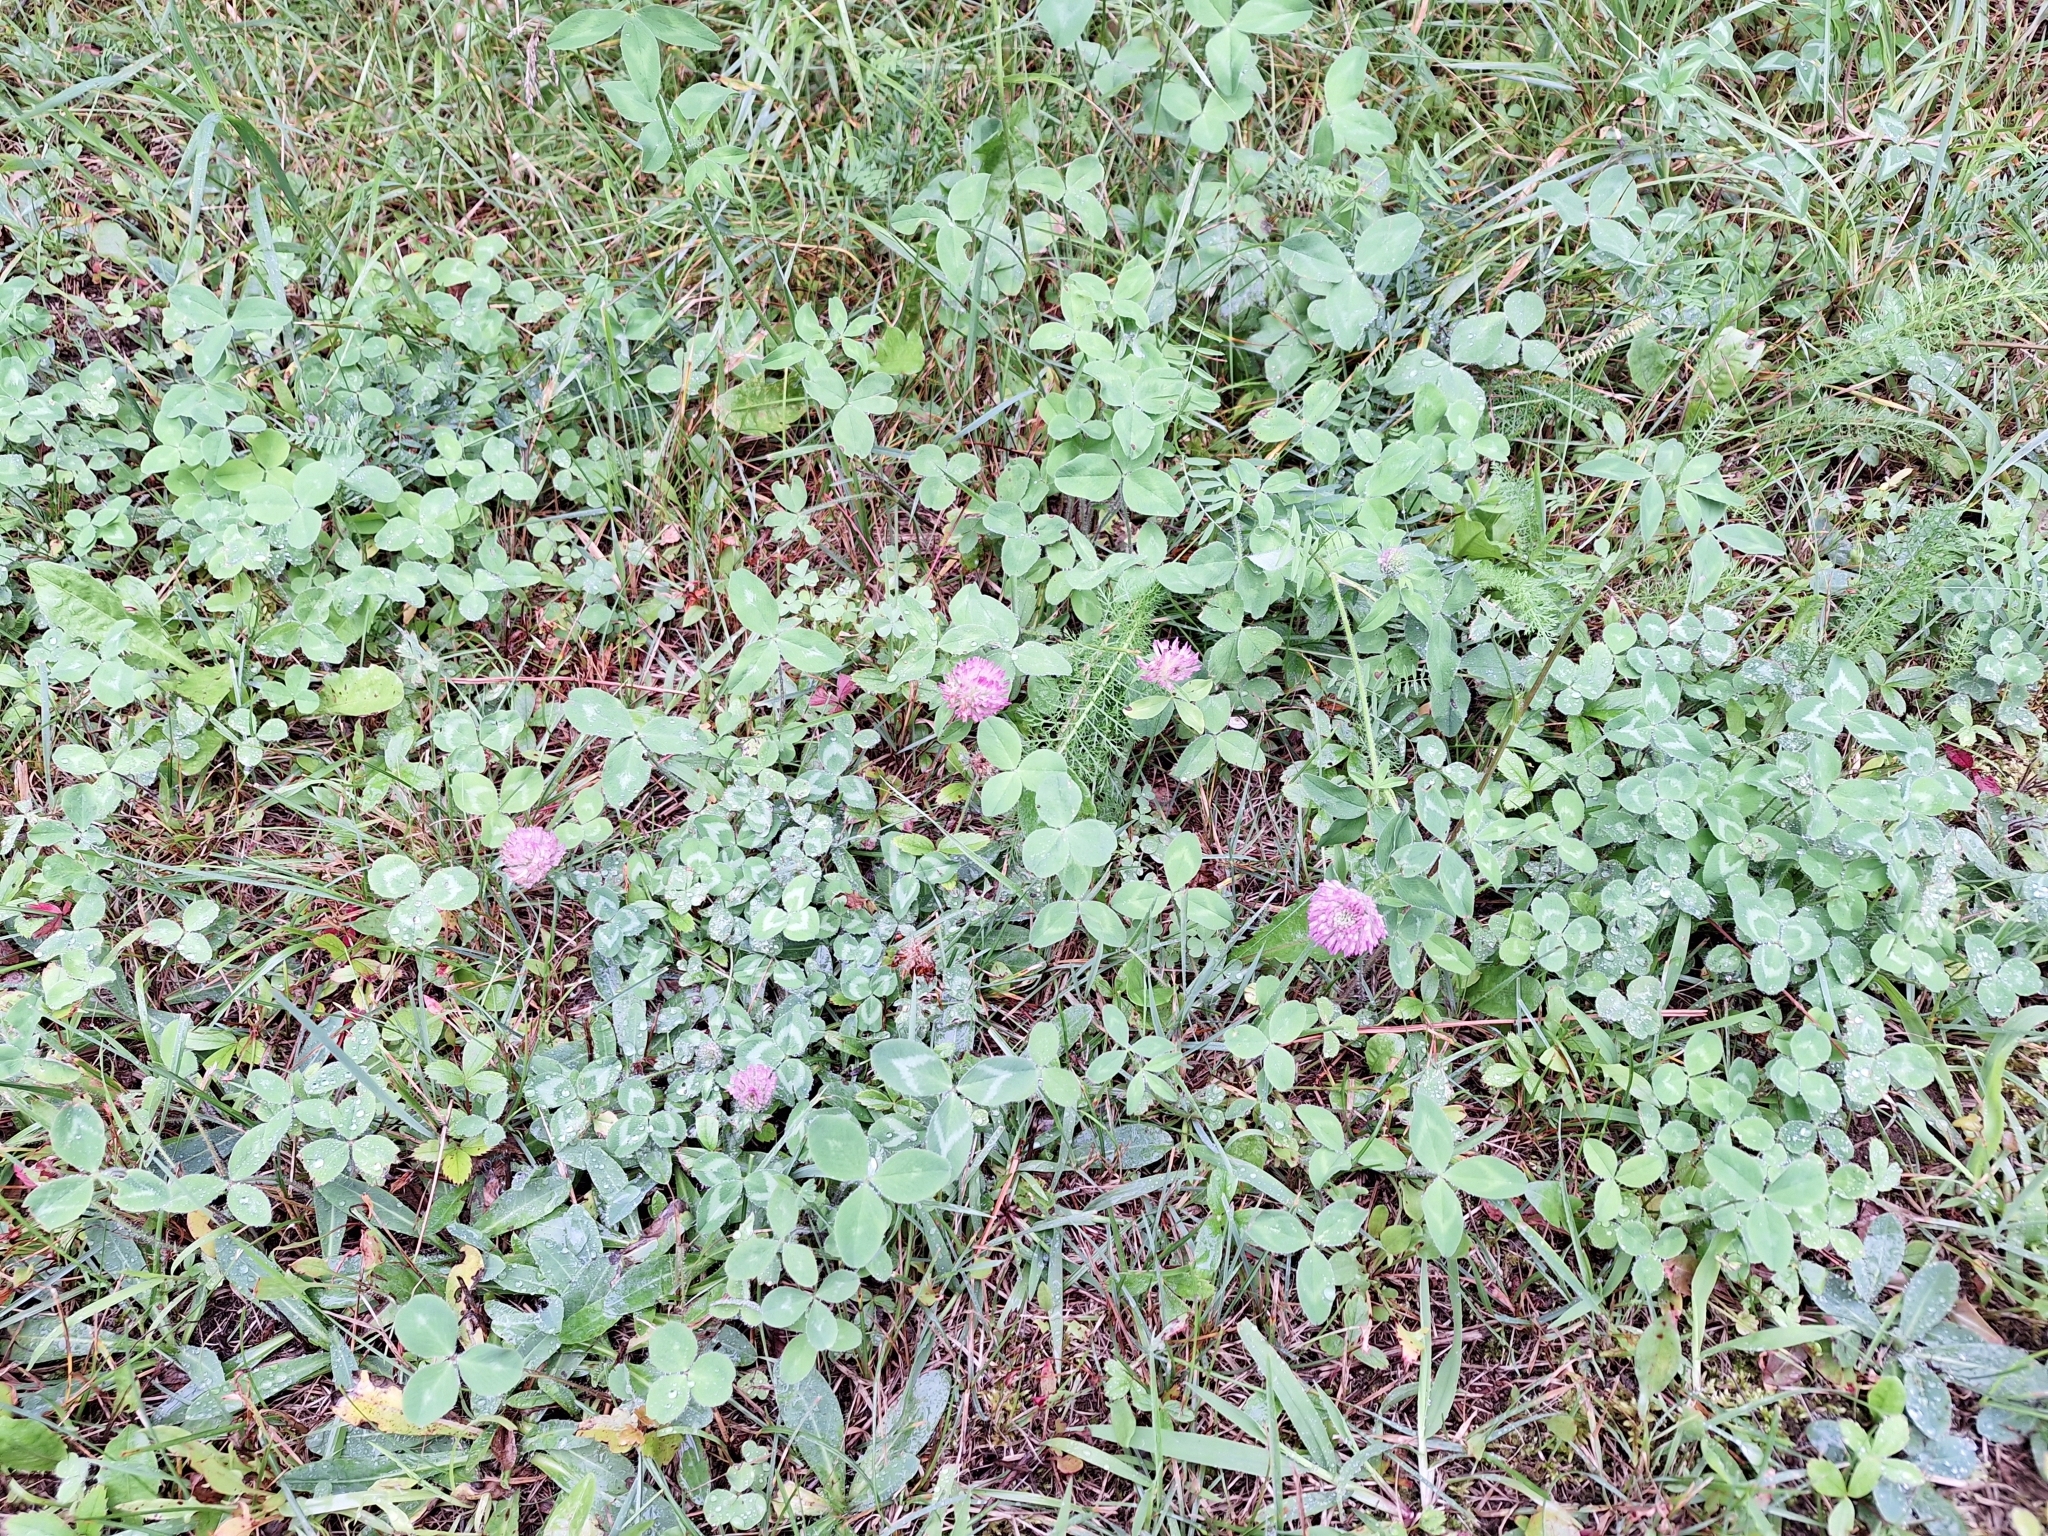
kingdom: Plantae
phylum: Tracheophyta
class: Magnoliopsida
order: Fabales
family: Fabaceae
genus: Trifolium
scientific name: Trifolium pratense
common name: Red clover
